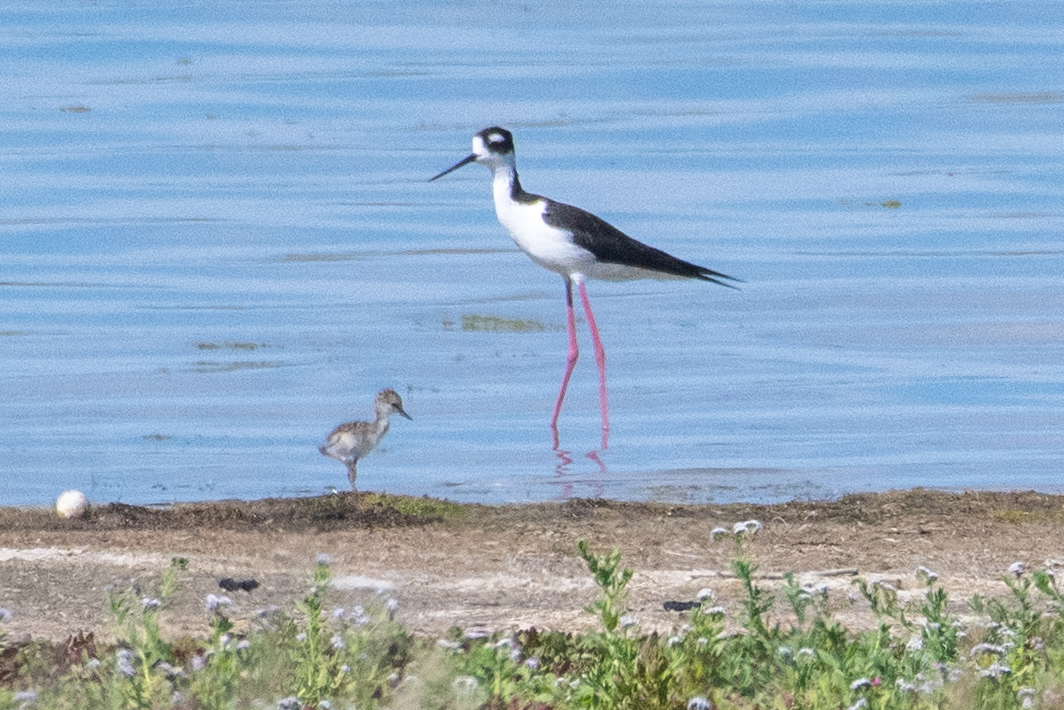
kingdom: Animalia
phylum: Chordata
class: Aves
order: Charadriiformes
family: Recurvirostridae
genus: Himantopus
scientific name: Himantopus mexicanus
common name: Black-necked stilt
